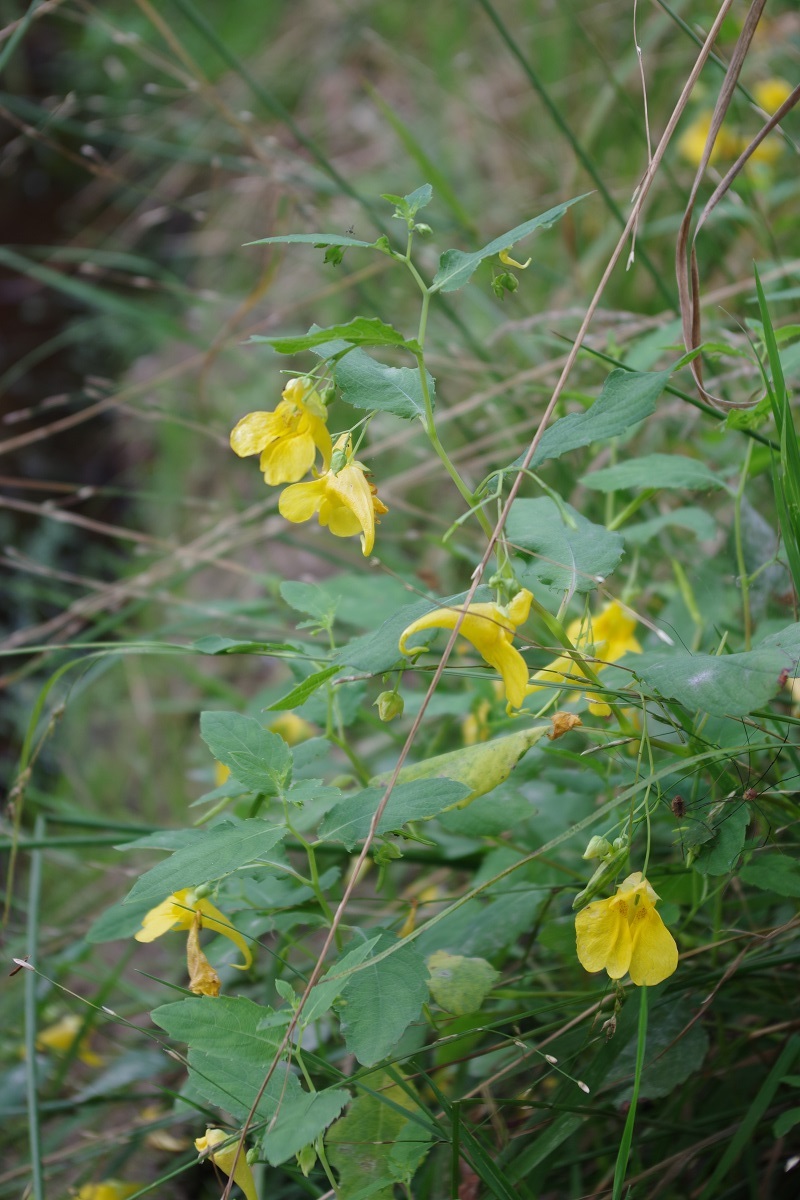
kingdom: Plantae
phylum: Tracheophyta
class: Magnoliopsida
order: Ericales
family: Balsaminaceae
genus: Impatiens
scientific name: Impatiens noli-tangere
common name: Touch-me-not balsam
